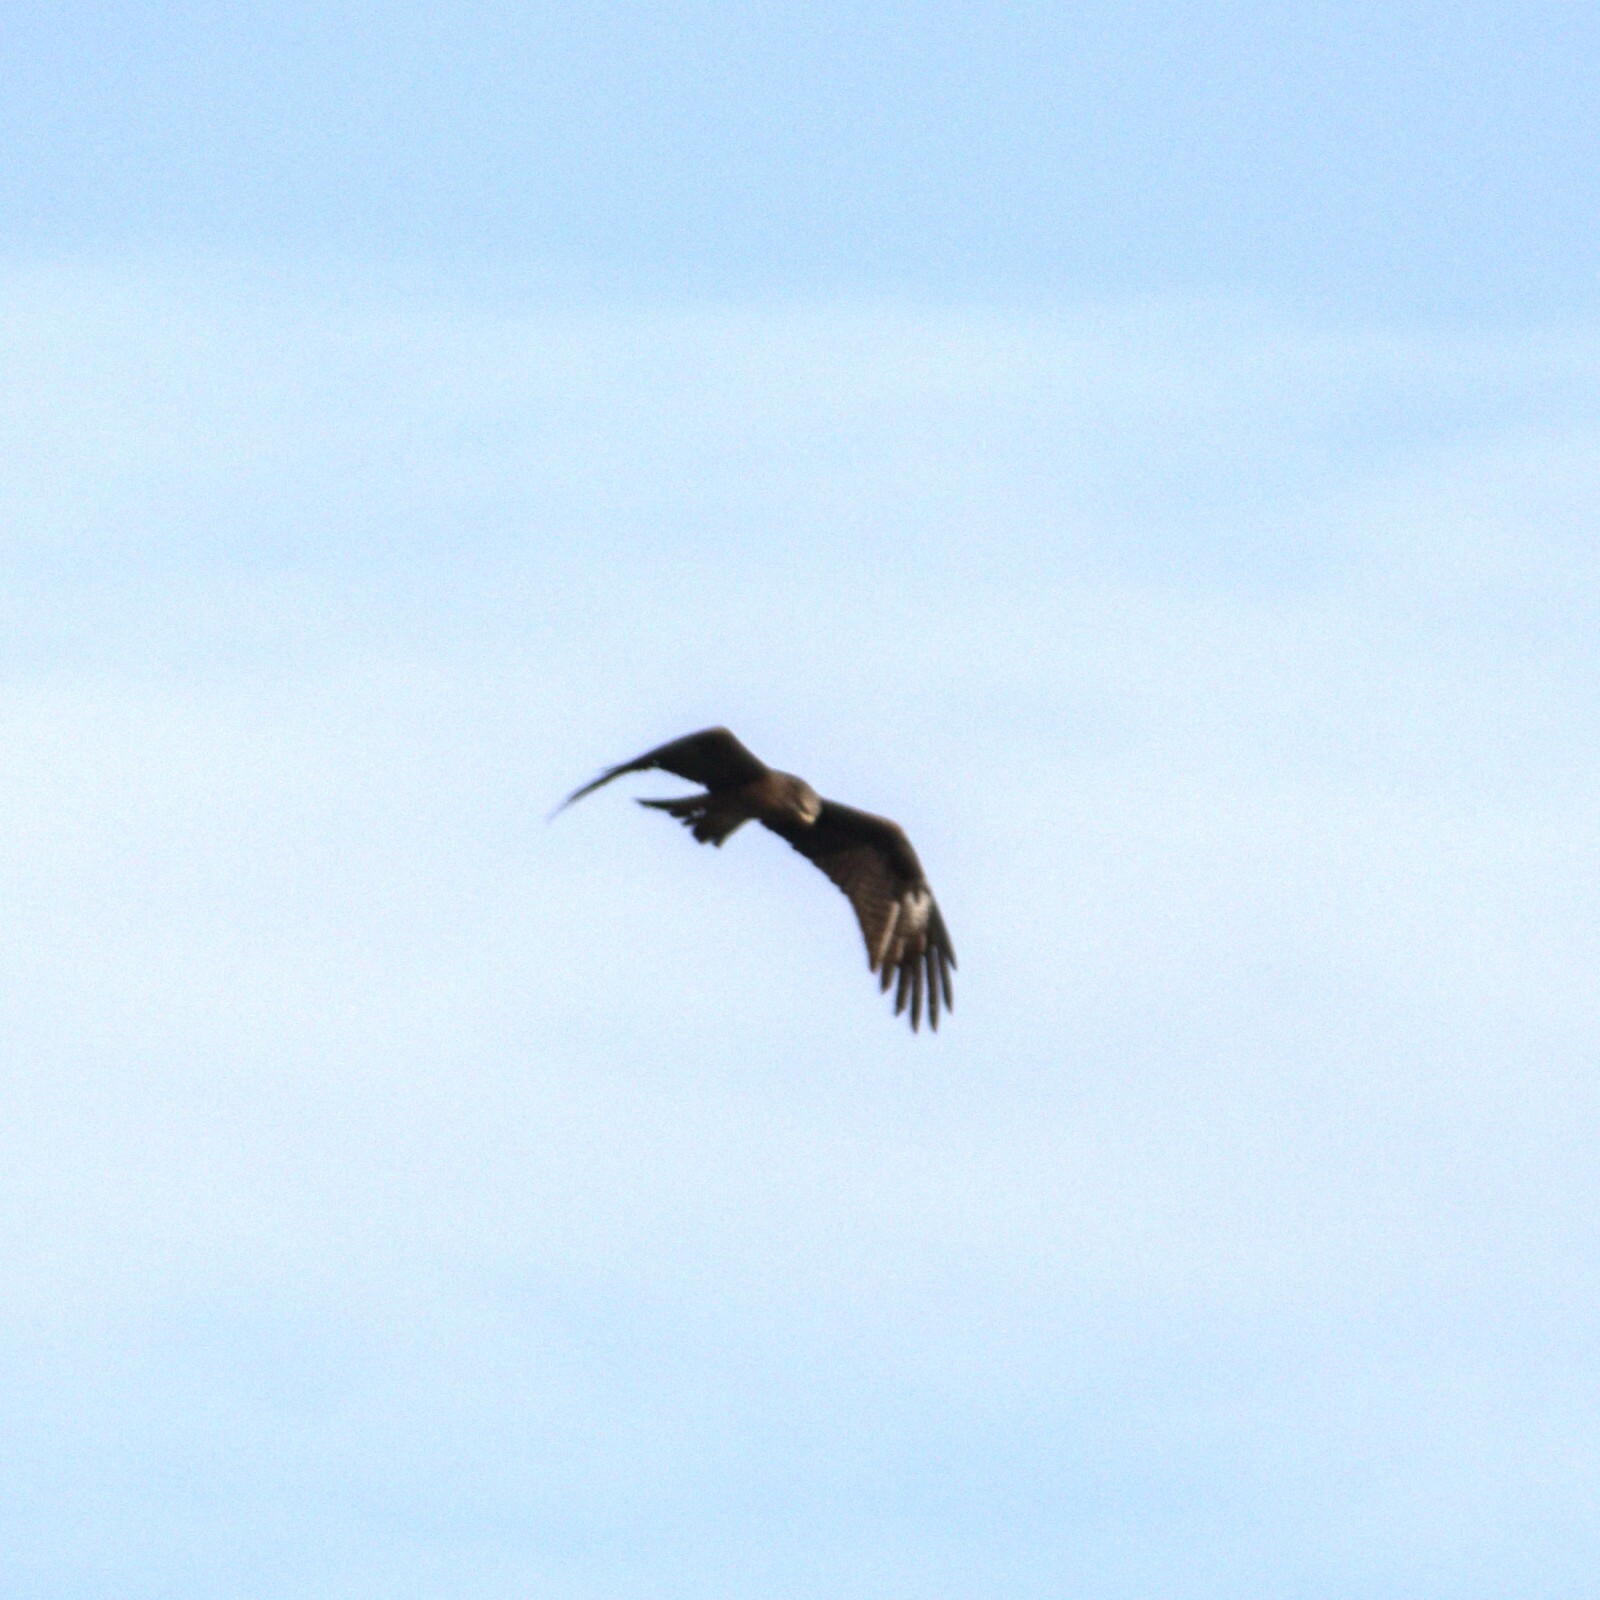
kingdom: Animalia
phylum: Chordata
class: Aves
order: Accipitriformes
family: Accipitridae
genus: Milvus
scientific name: Milvus migrans
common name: Black kite
